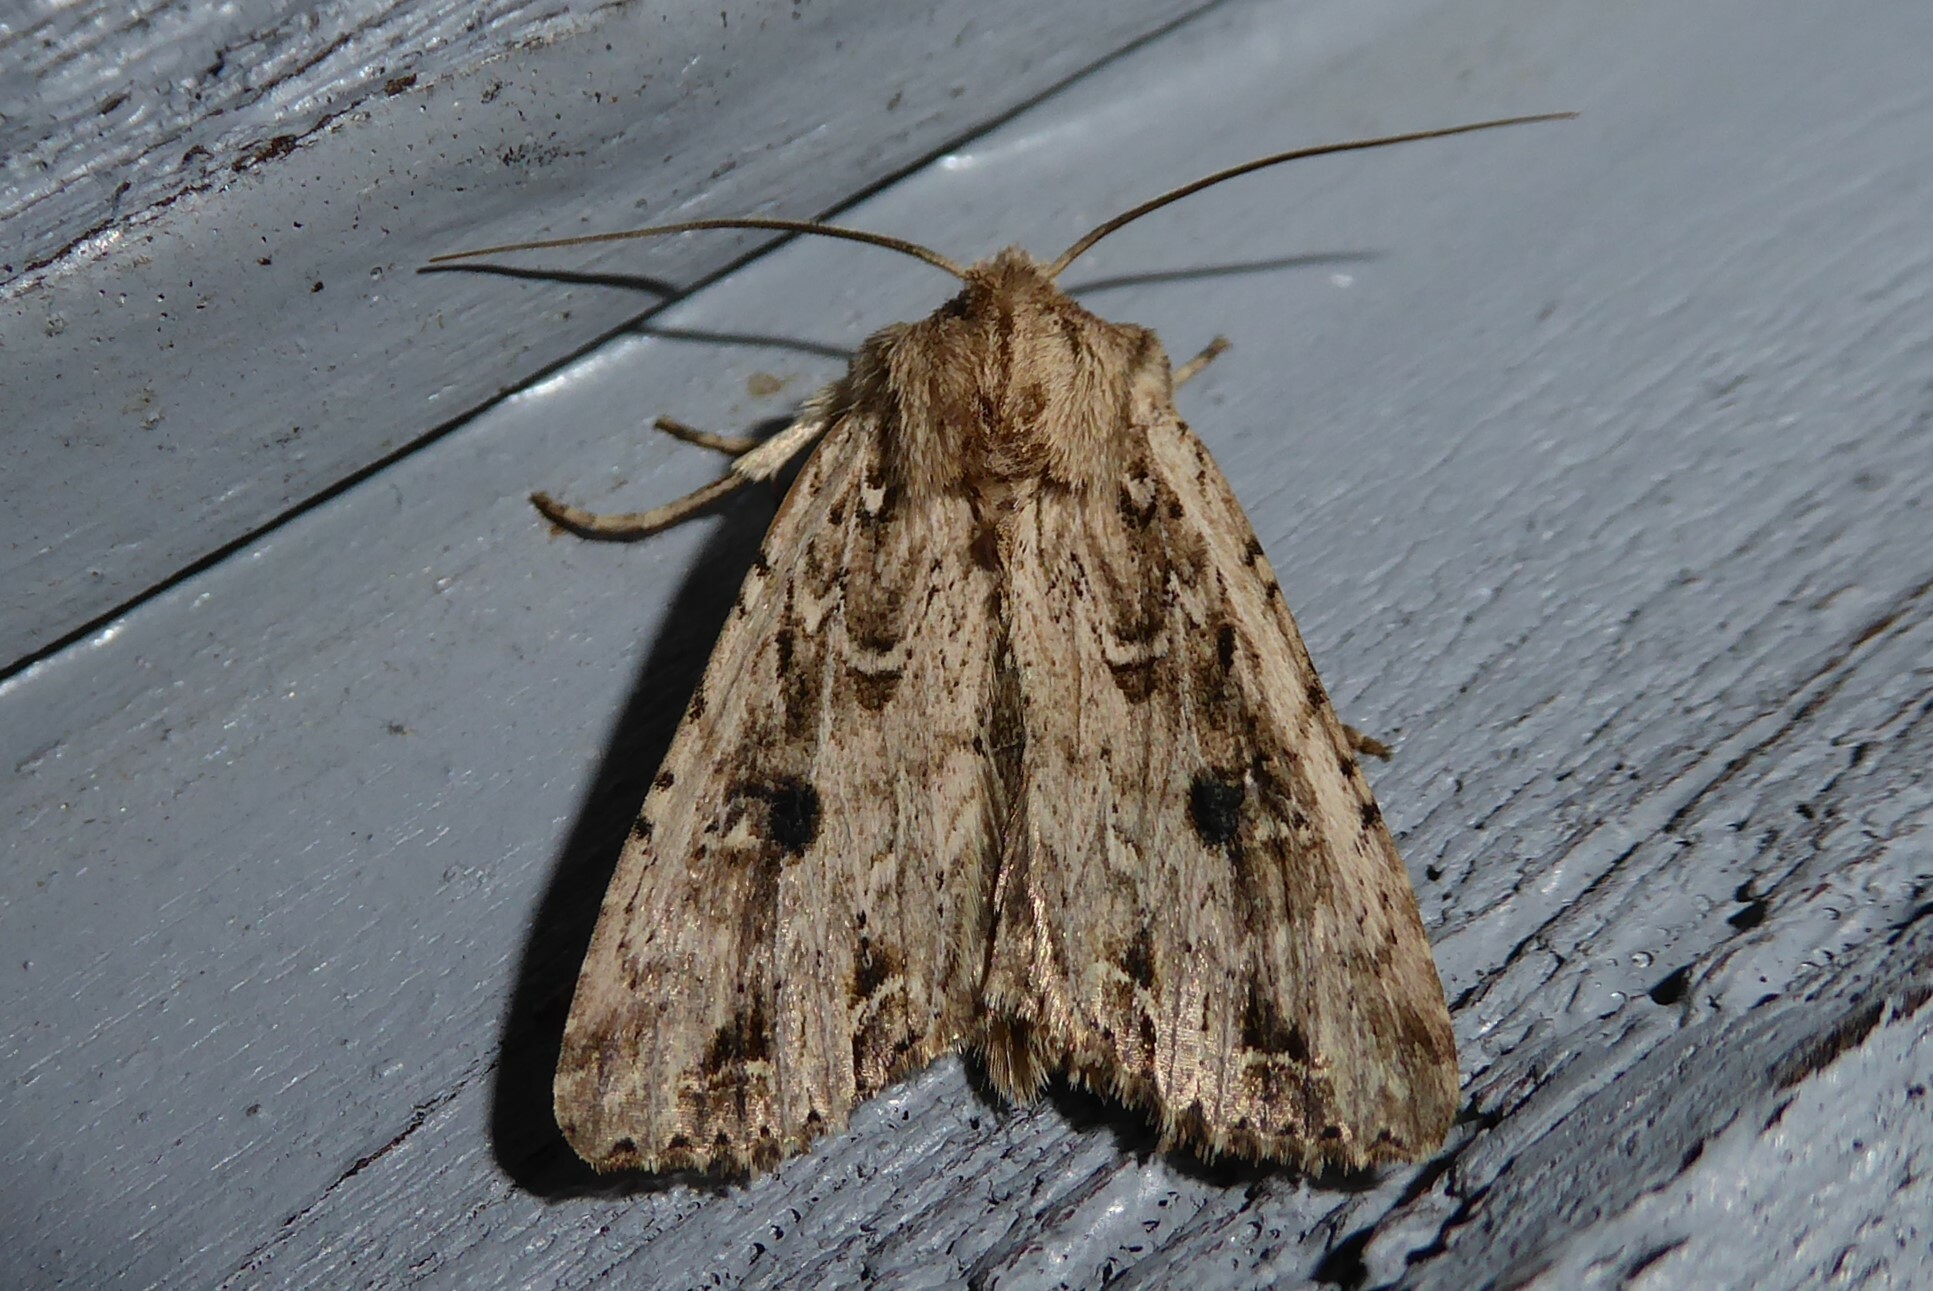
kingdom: Animalia
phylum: Arthropoda
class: Insecta
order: Lepidoptera
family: Noctuidae
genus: Ichneutica
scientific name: Ichneutica lignana
